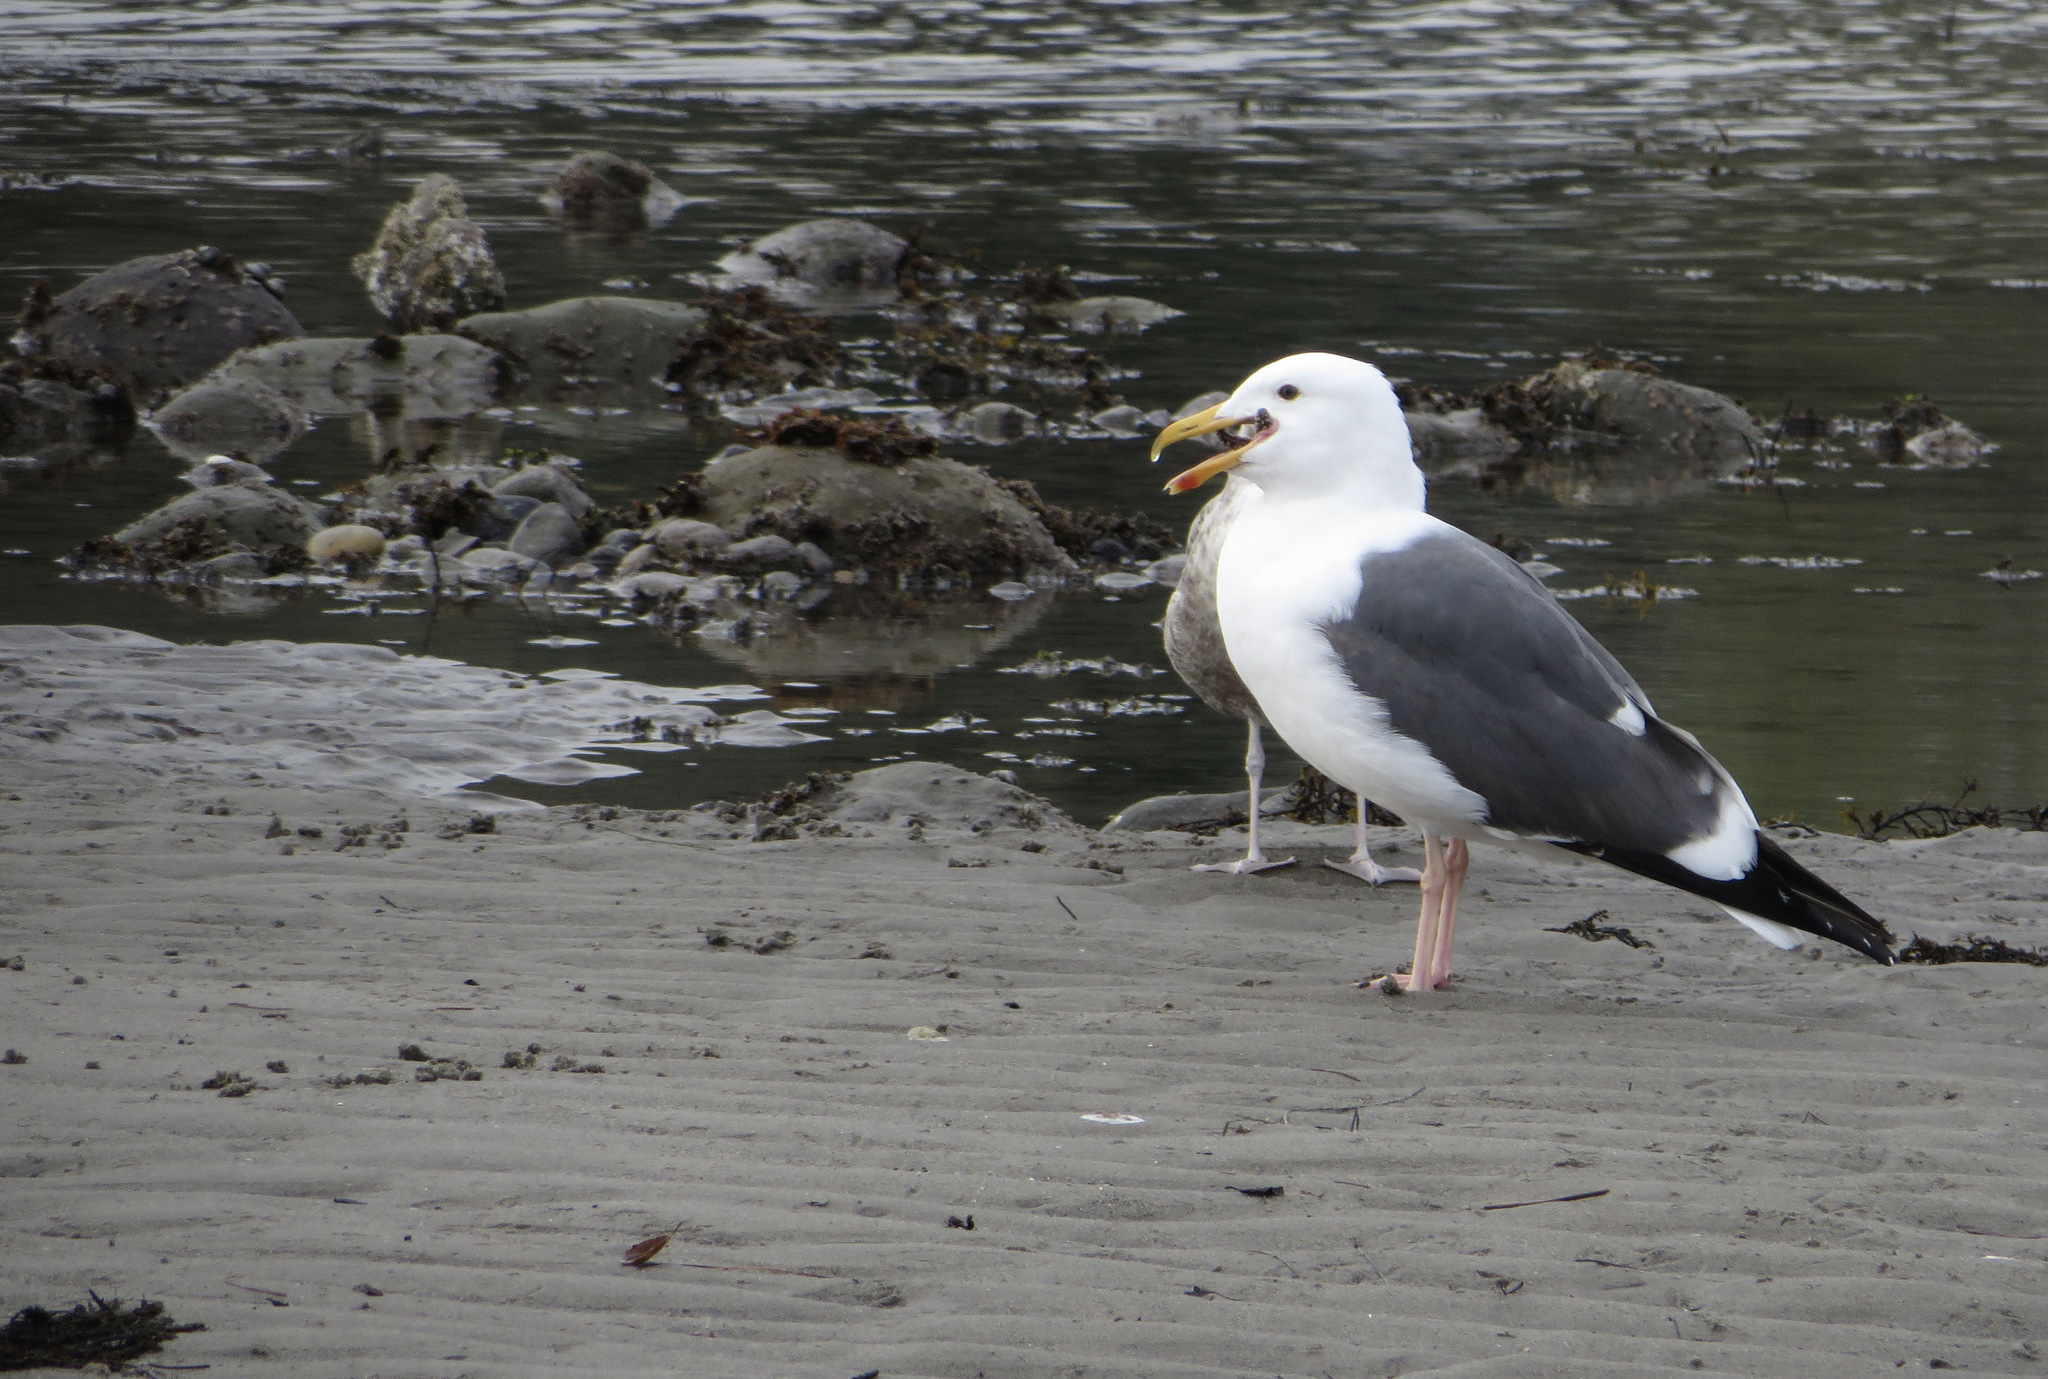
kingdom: Animalia
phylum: Chordata
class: Aves
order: Charadriiformes
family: Laridae
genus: Larus
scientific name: Larus occidentalis
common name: Western gull
